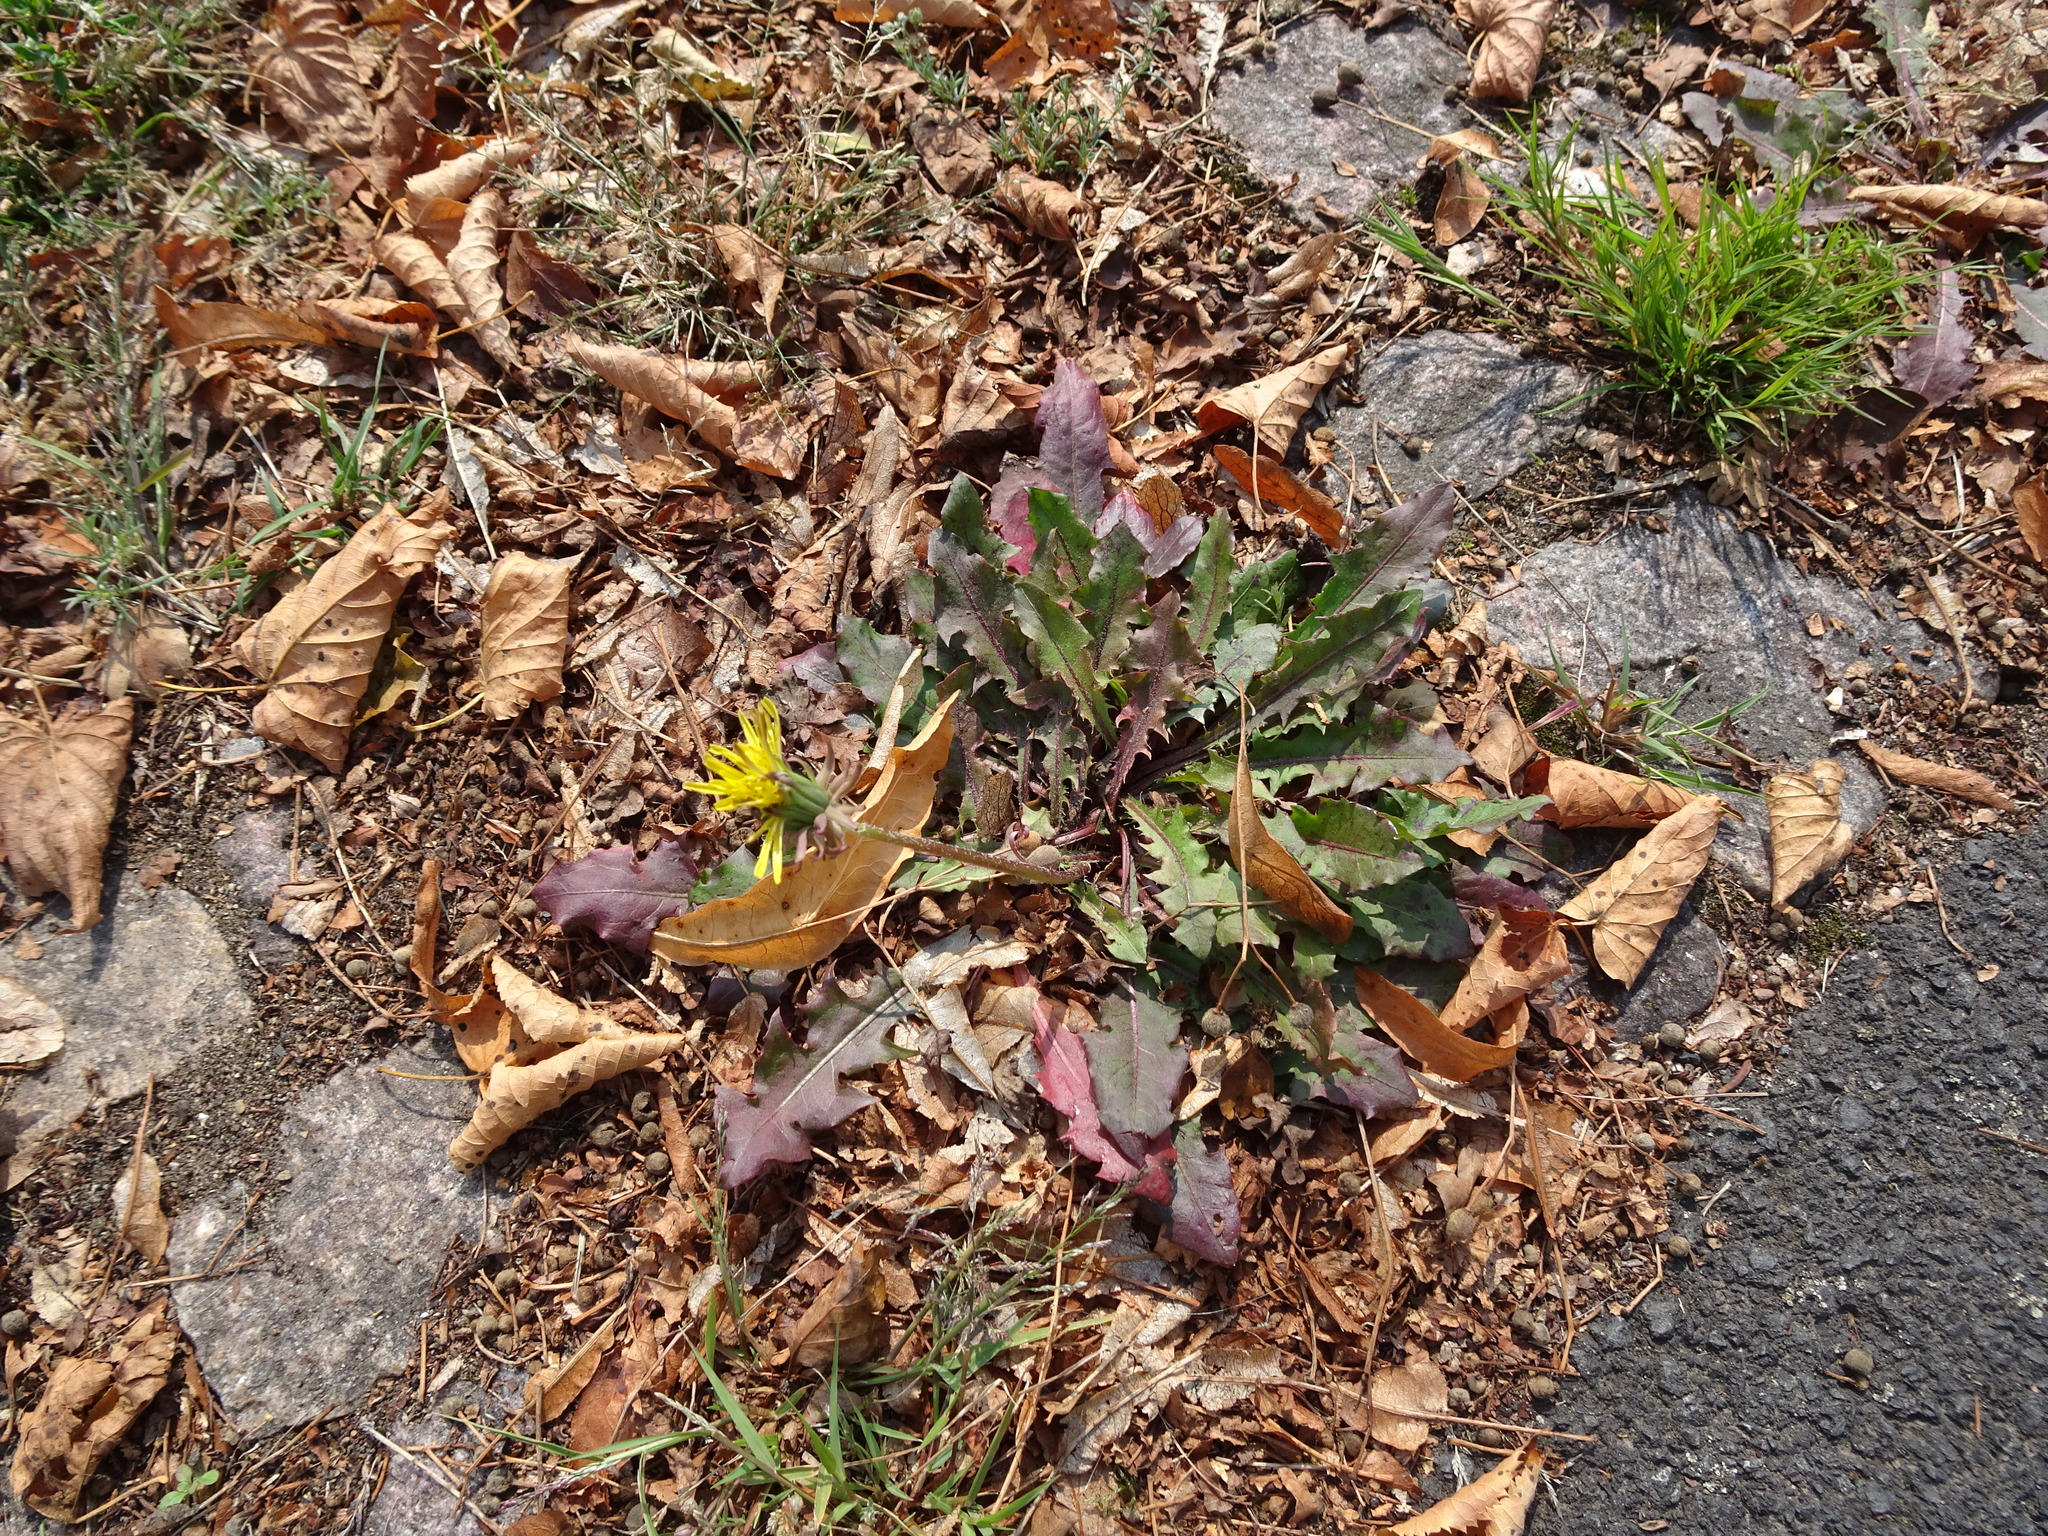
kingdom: Plantae
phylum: Tracheophyta
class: Magnoliopsida
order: Asterales
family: Asteraceae
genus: Taraxacum
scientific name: Taraxacum officinale
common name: Common dandelion
